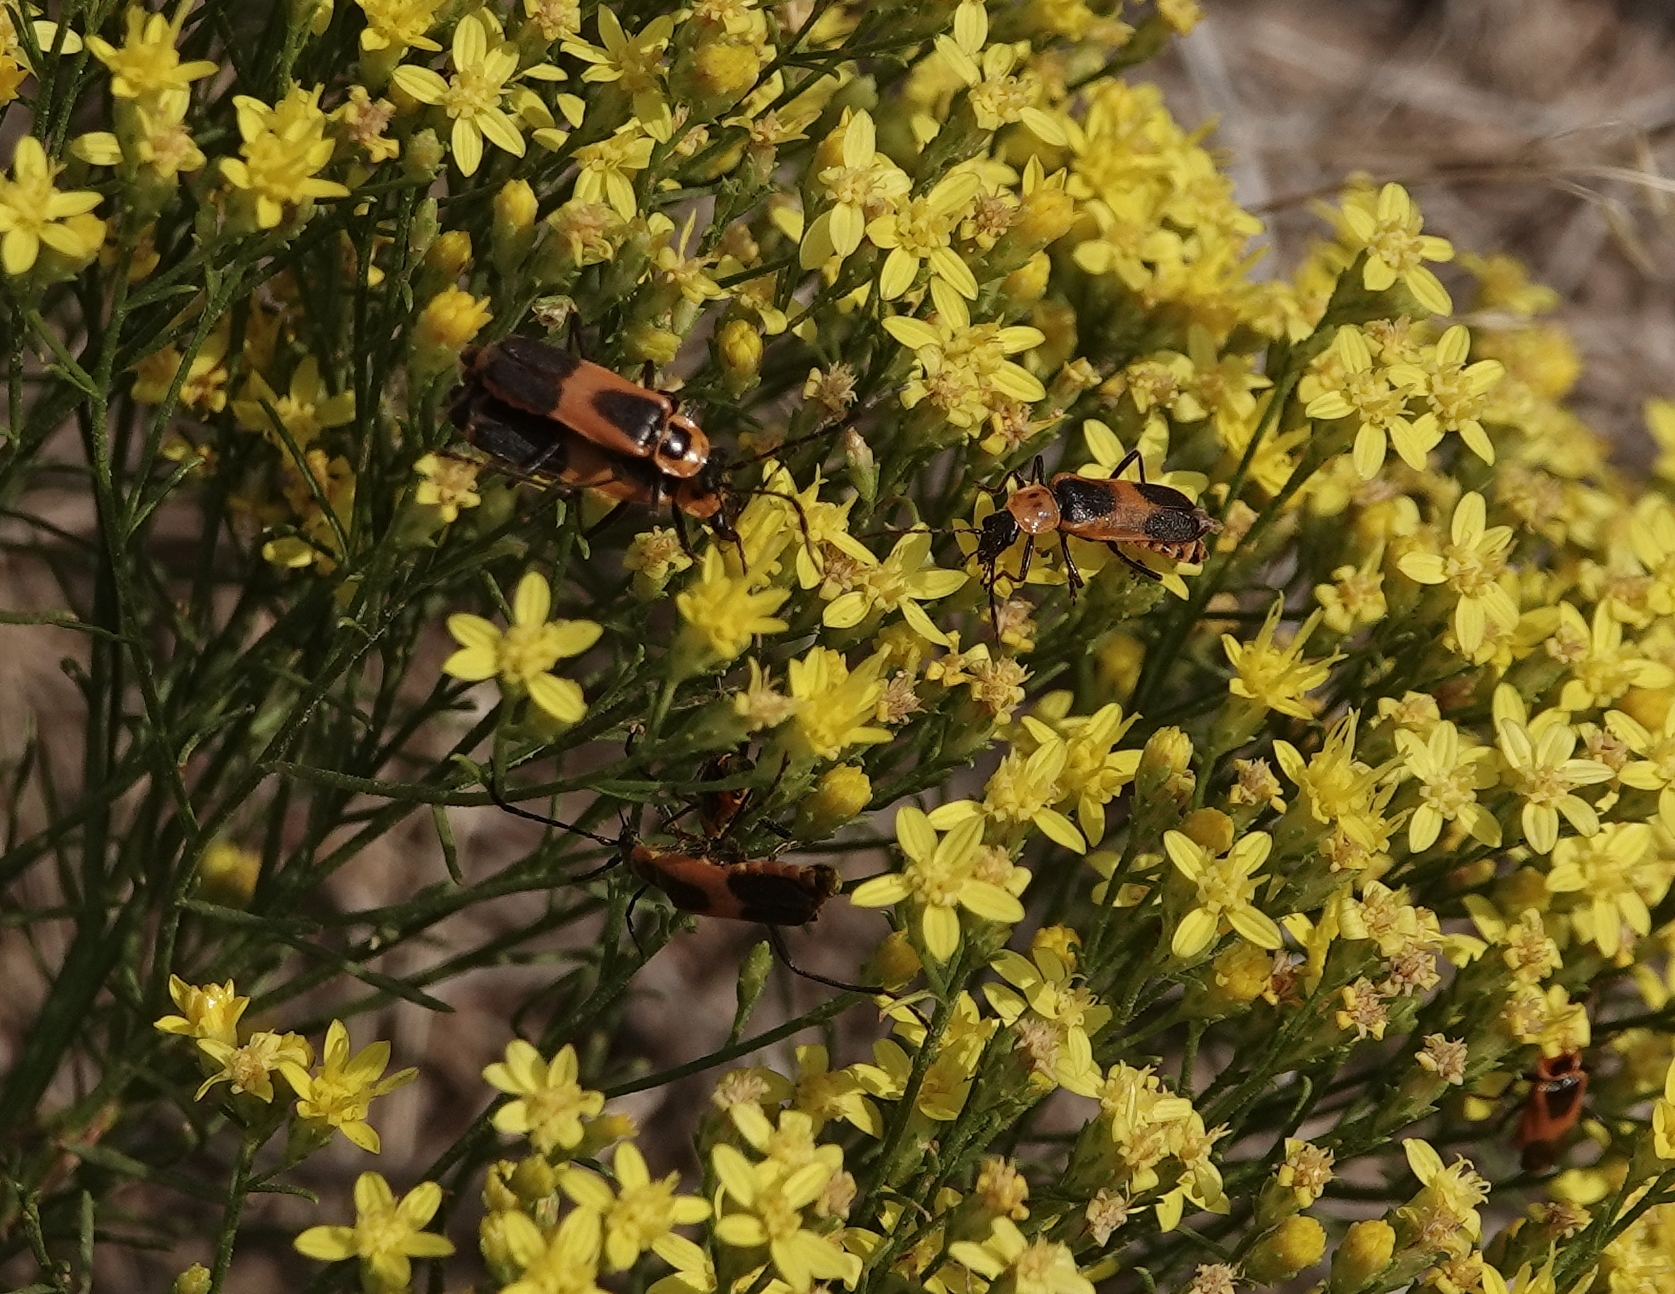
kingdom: Animalia
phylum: Arthropoda
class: Insecta
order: Coleoptera
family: Cantharidae
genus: Chauliognathus
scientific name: Chauliognathus basalis
